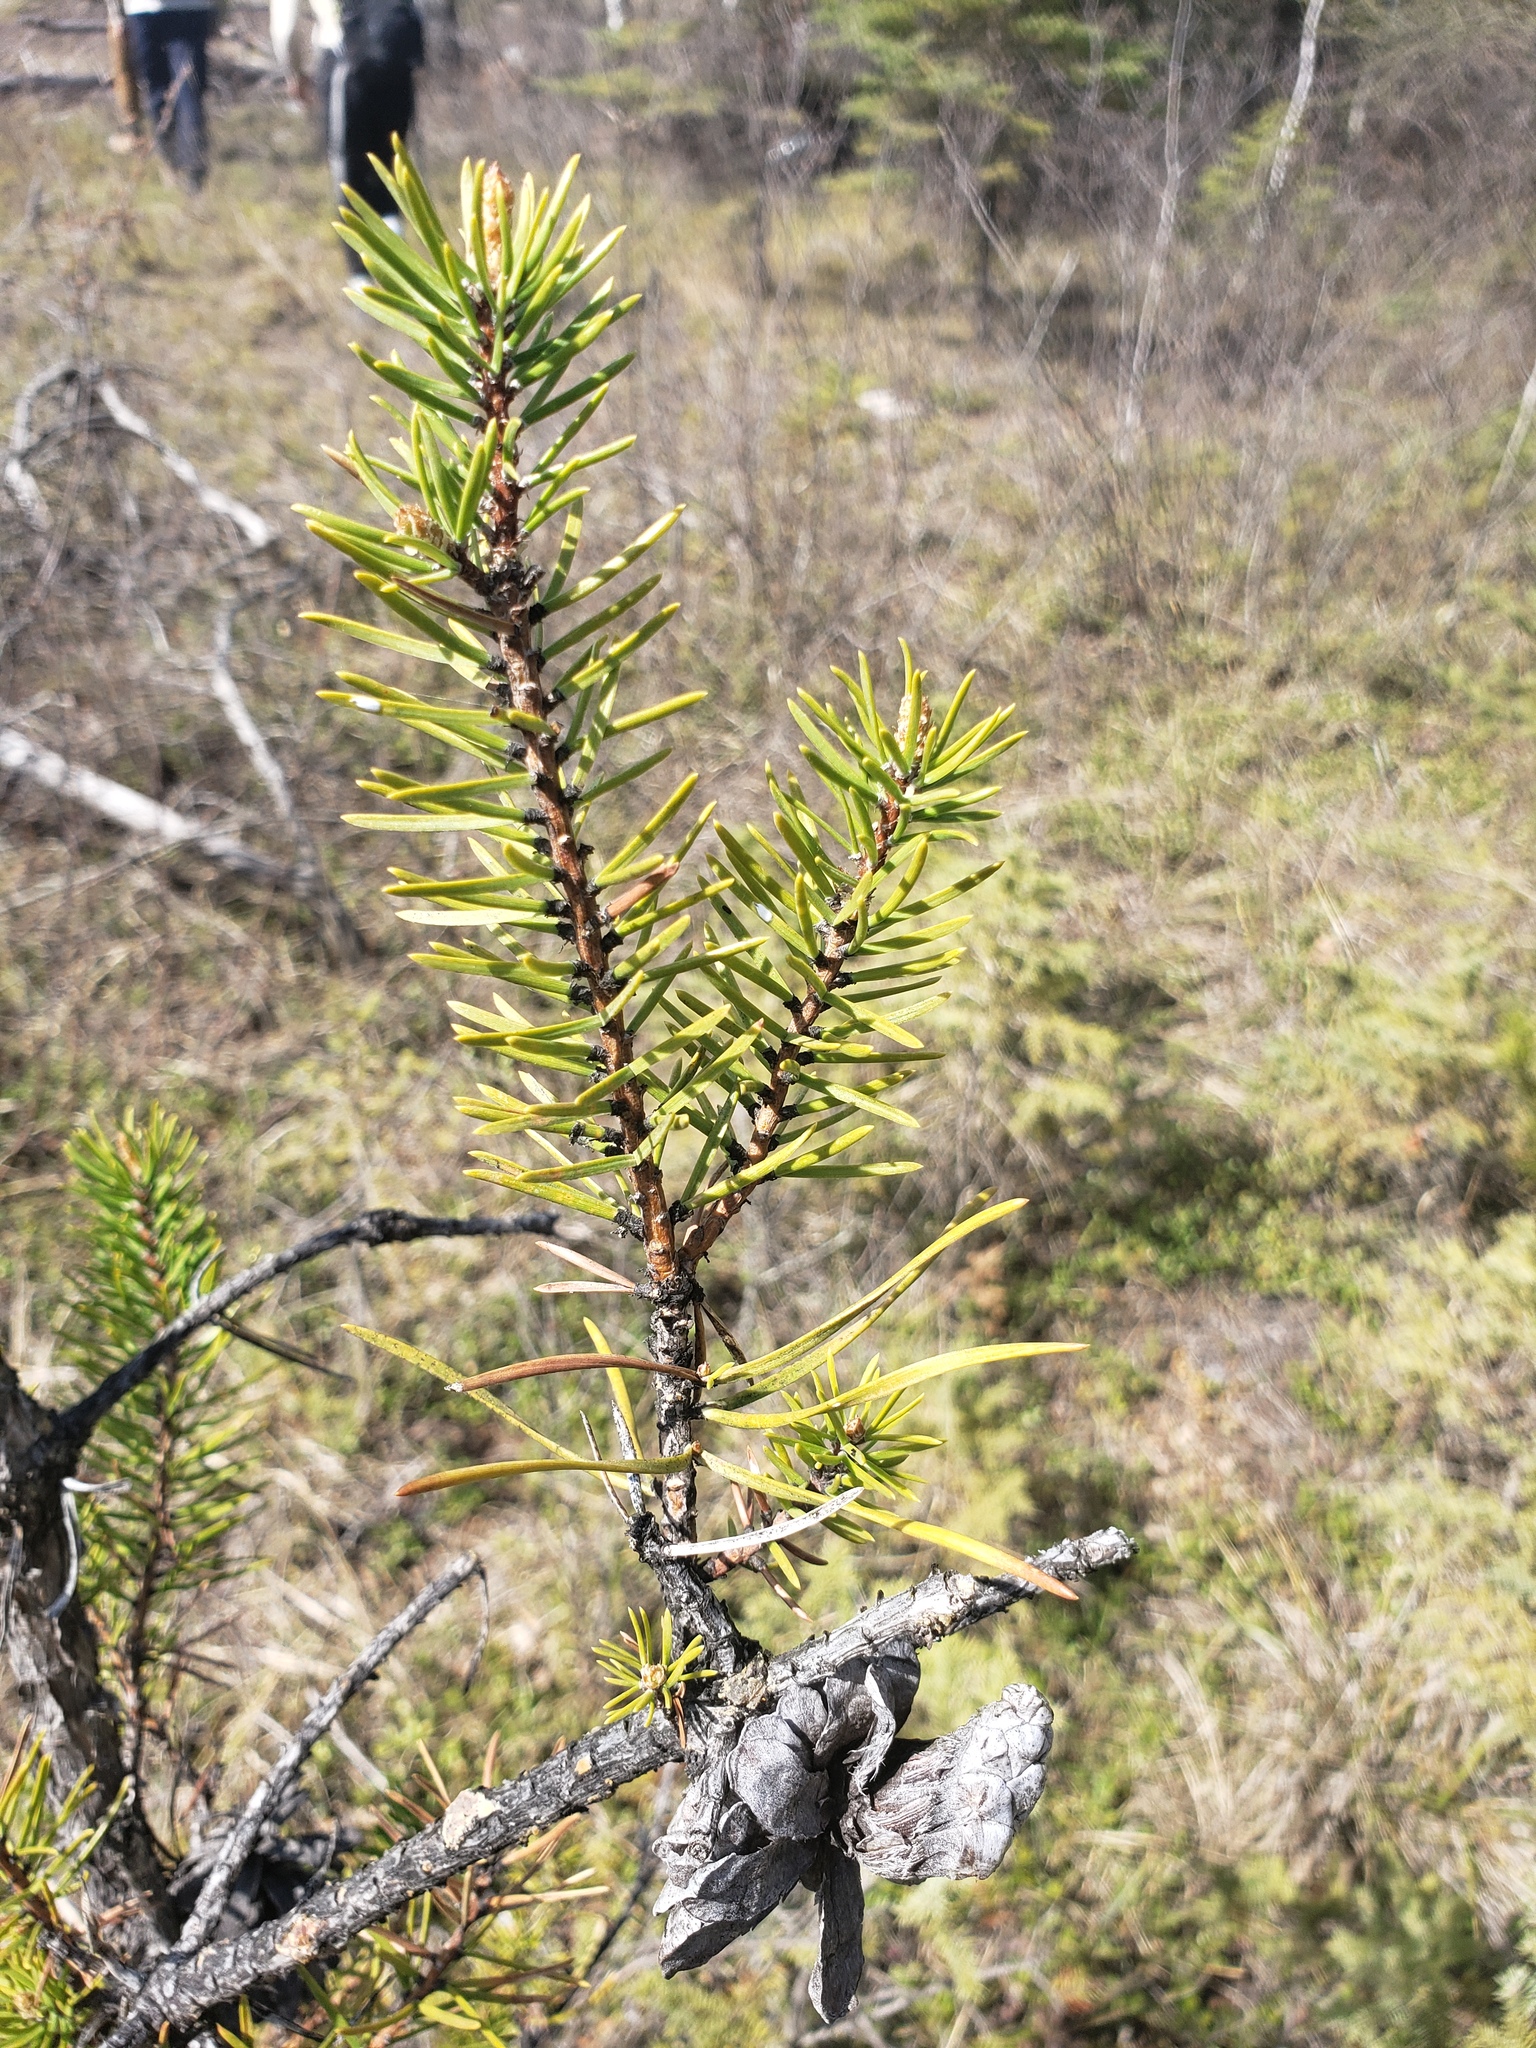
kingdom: Plantae
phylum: Tracheophyta
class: Pinopsida
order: Pinales
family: Pinaceae
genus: Pinus
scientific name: Pinus banksiana
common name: Jack pine
